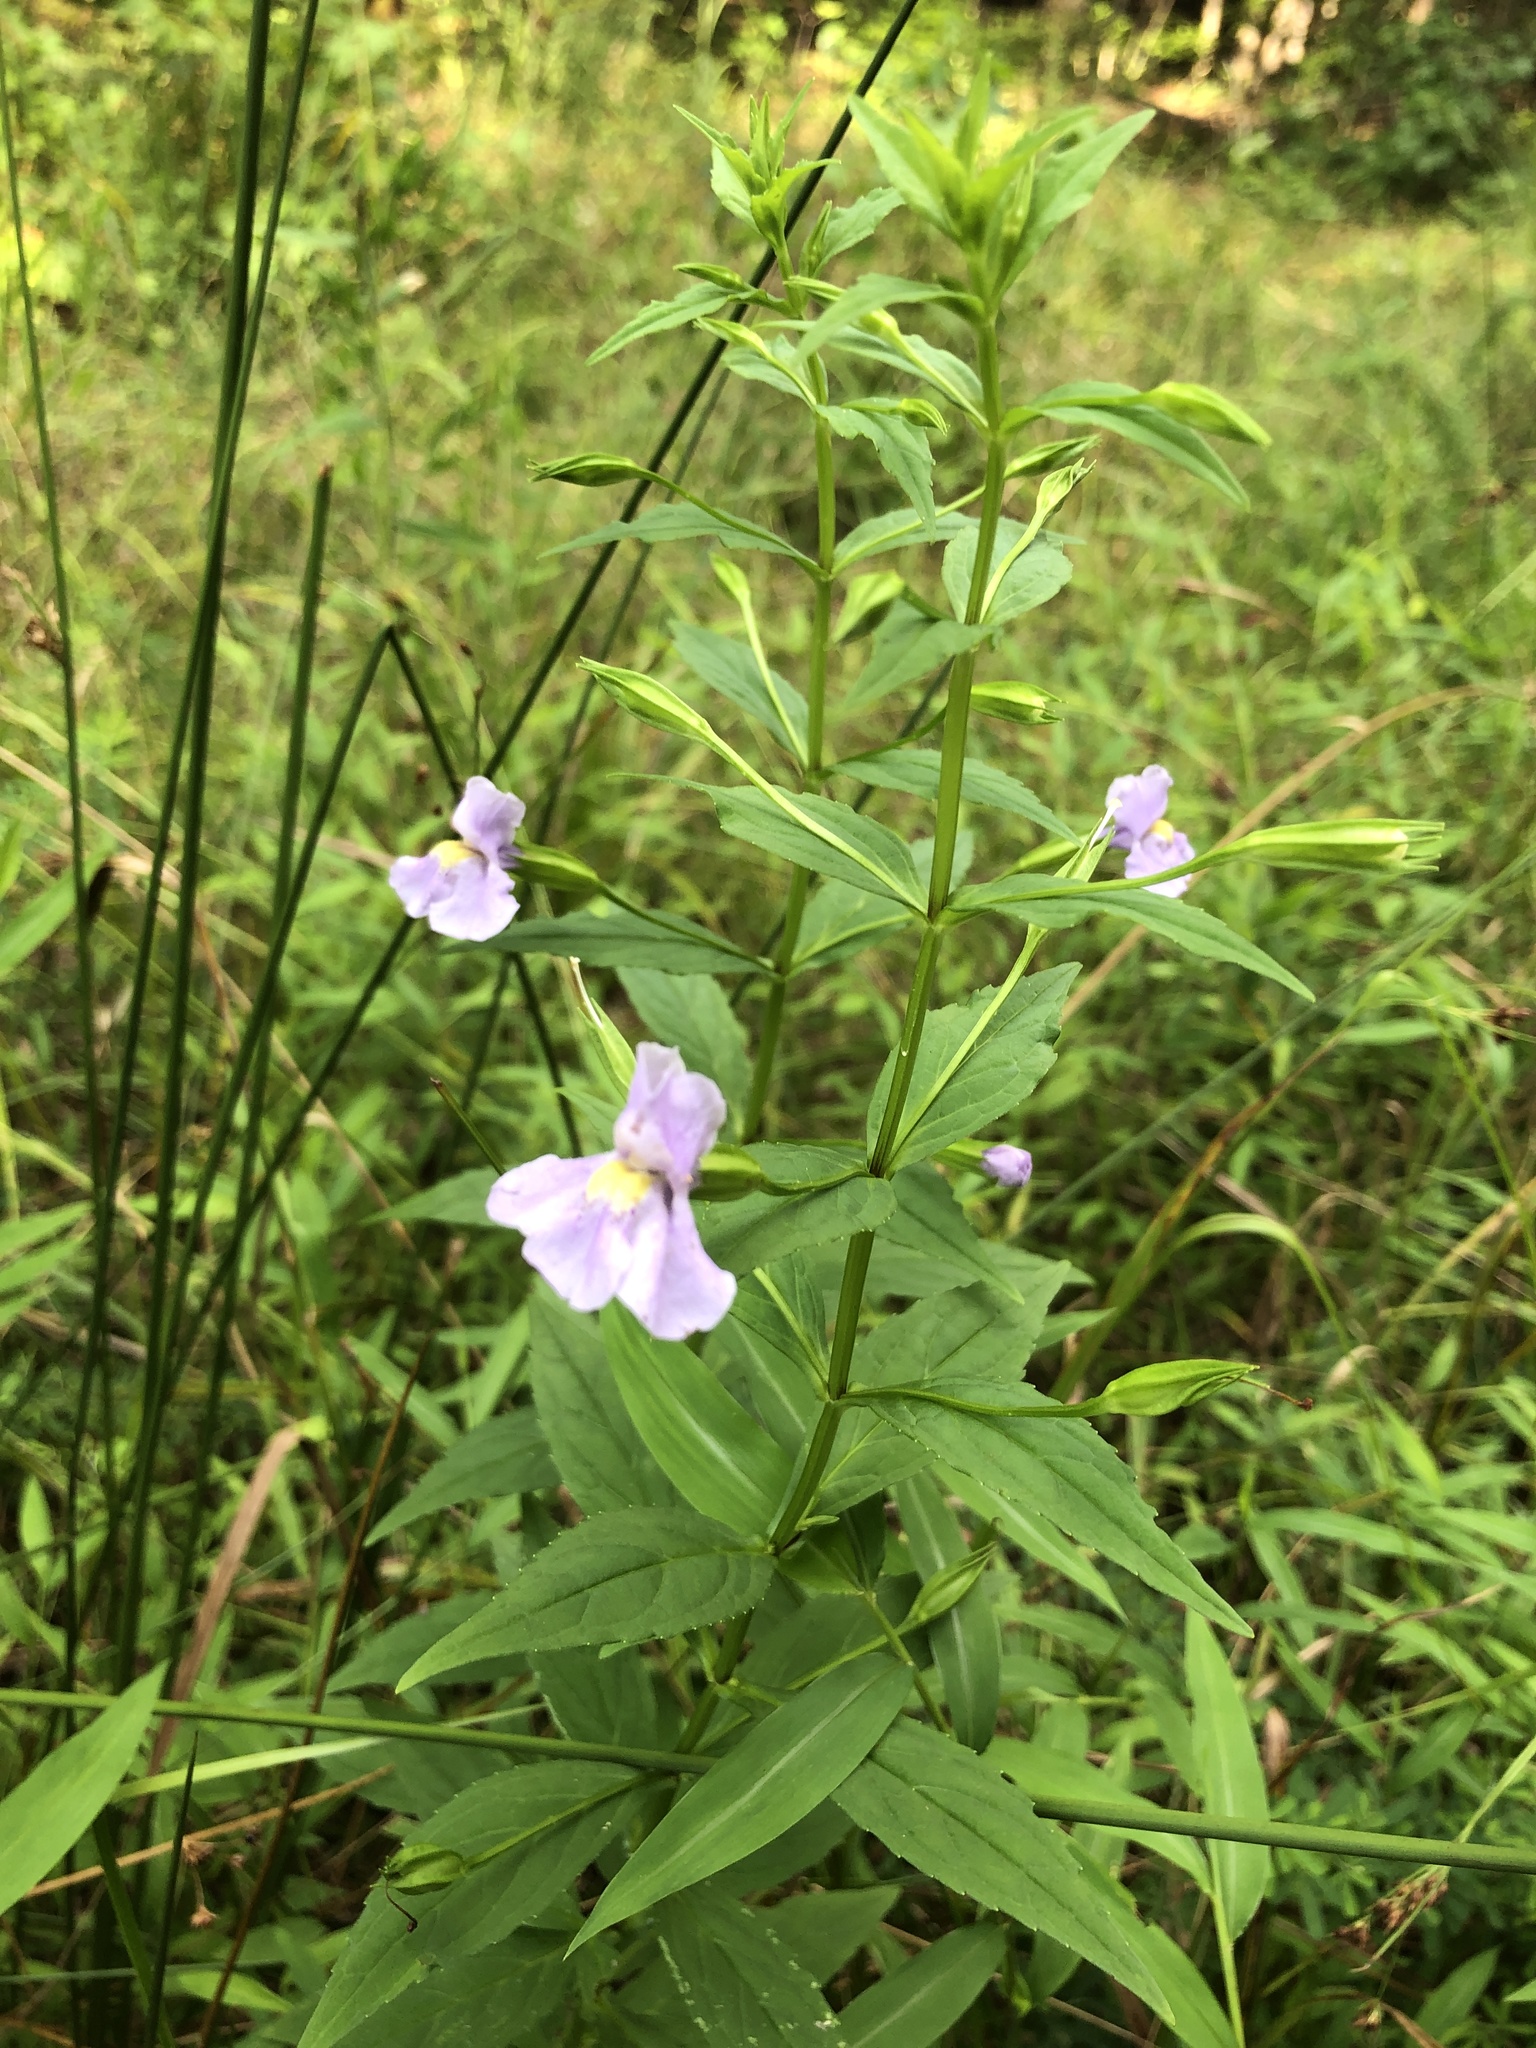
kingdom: Plantae
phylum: Tracheophyta
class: Magnoliopsida
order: Lamiales
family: Phrymaceae
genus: Mimulus
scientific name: Mimulus ringens
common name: Allegheny monkeyflower
